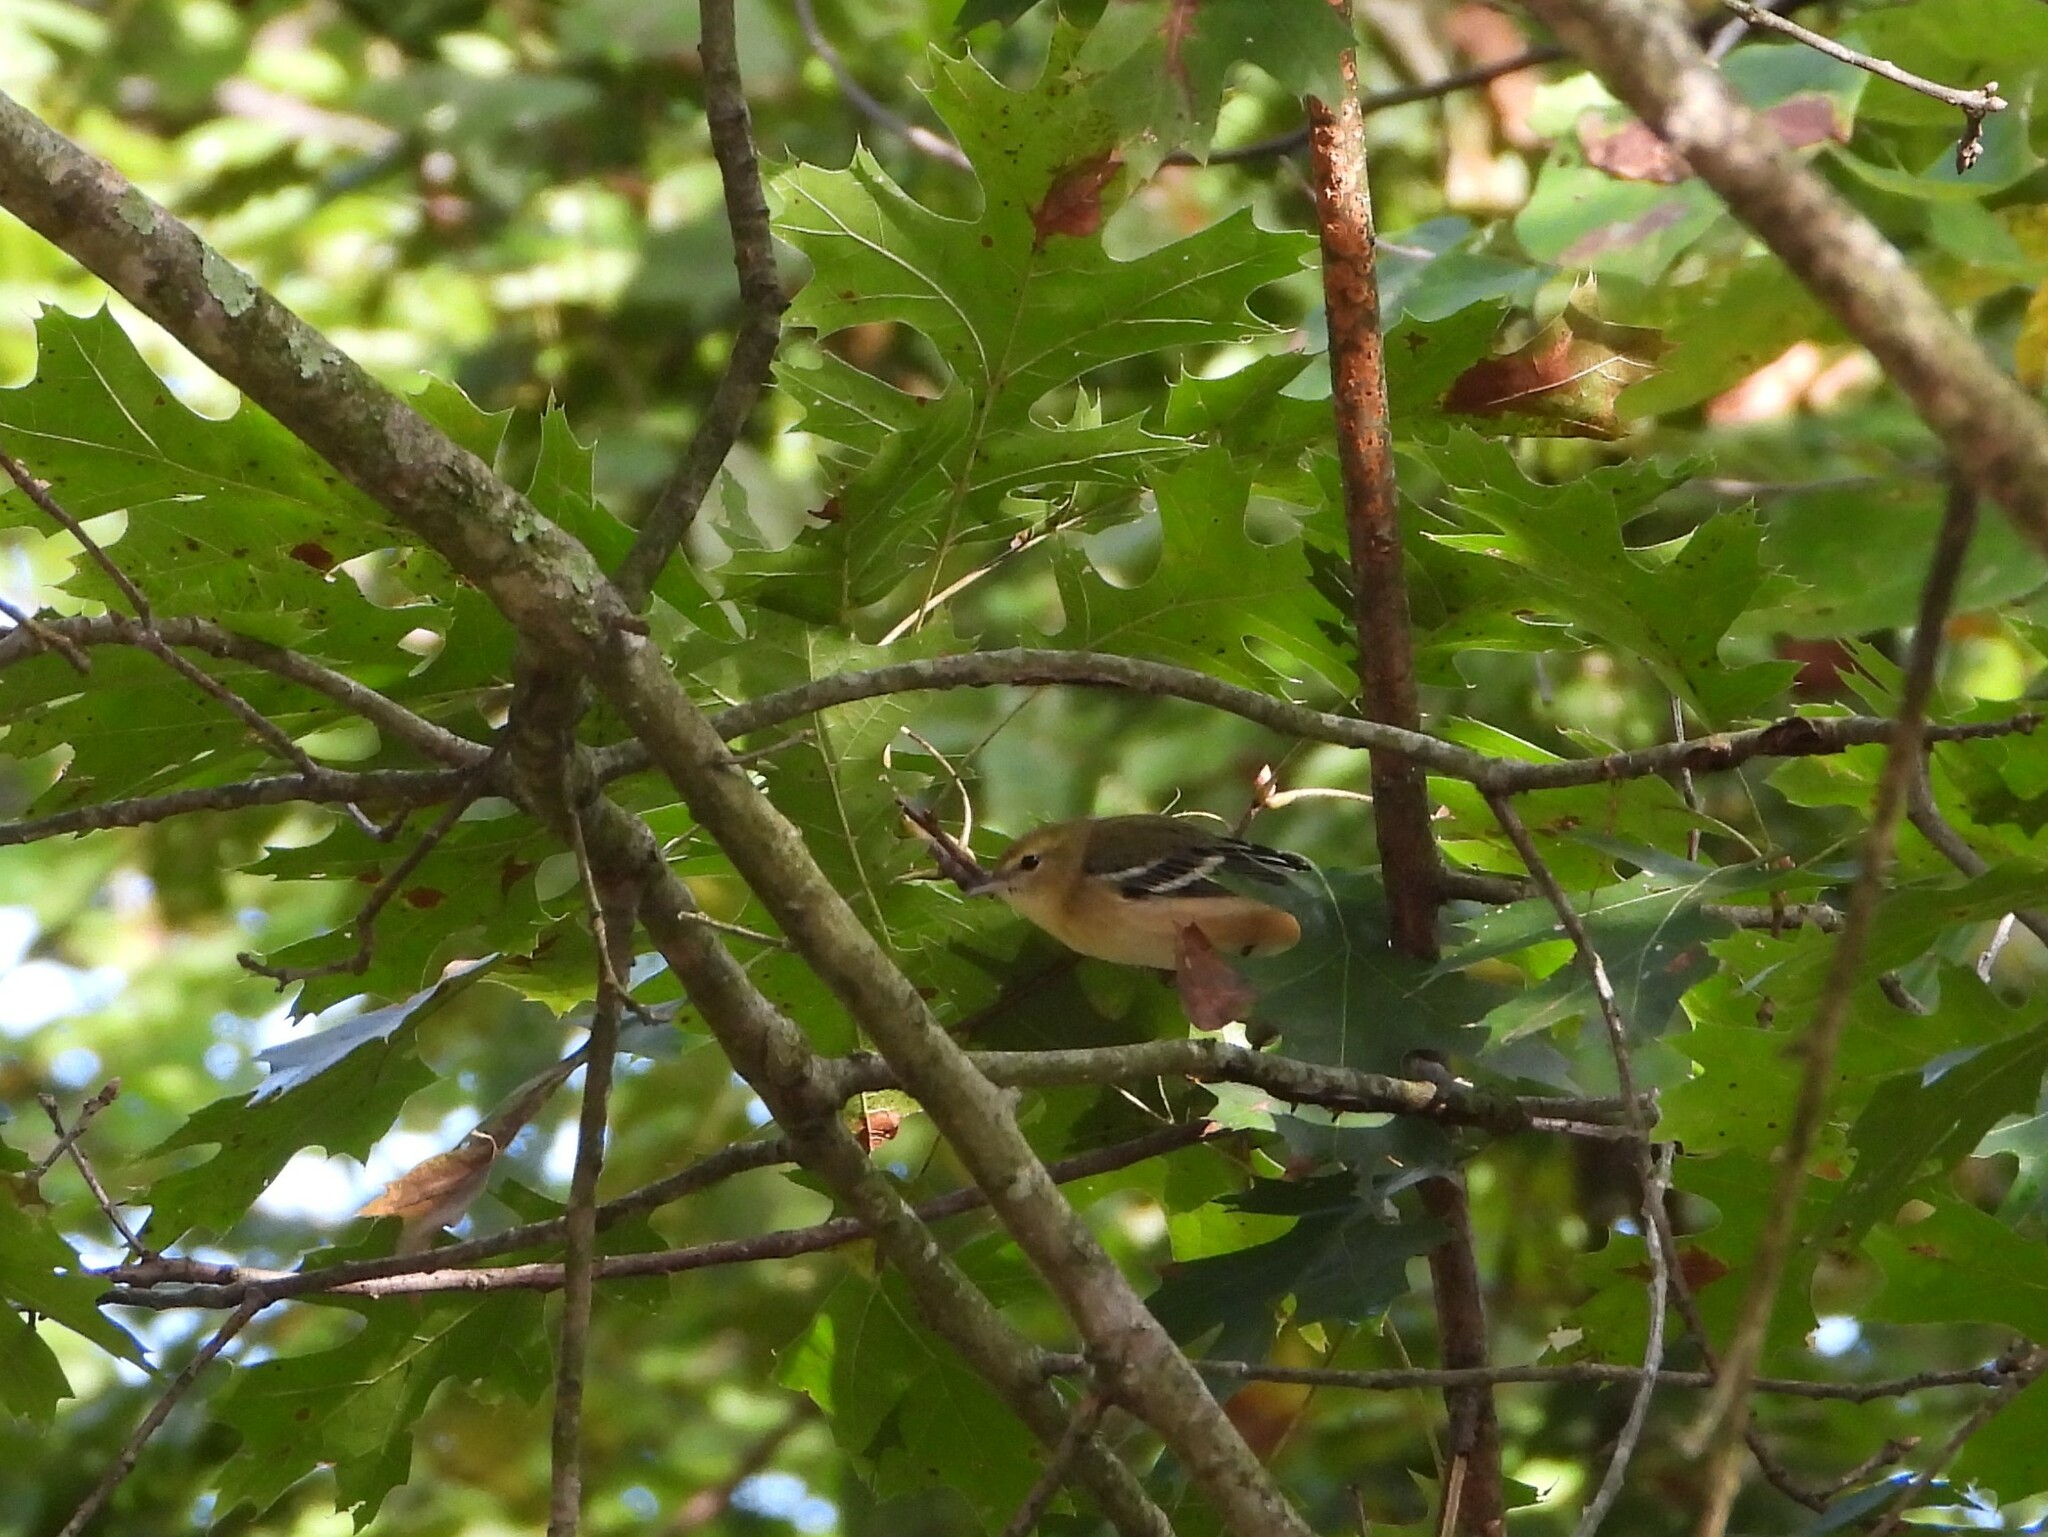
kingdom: Animalia
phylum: Chordata
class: Aves
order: Passeriformes
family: Parulidae
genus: Setophaga
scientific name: Setophaga castanea
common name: Bay-breasted warbler
